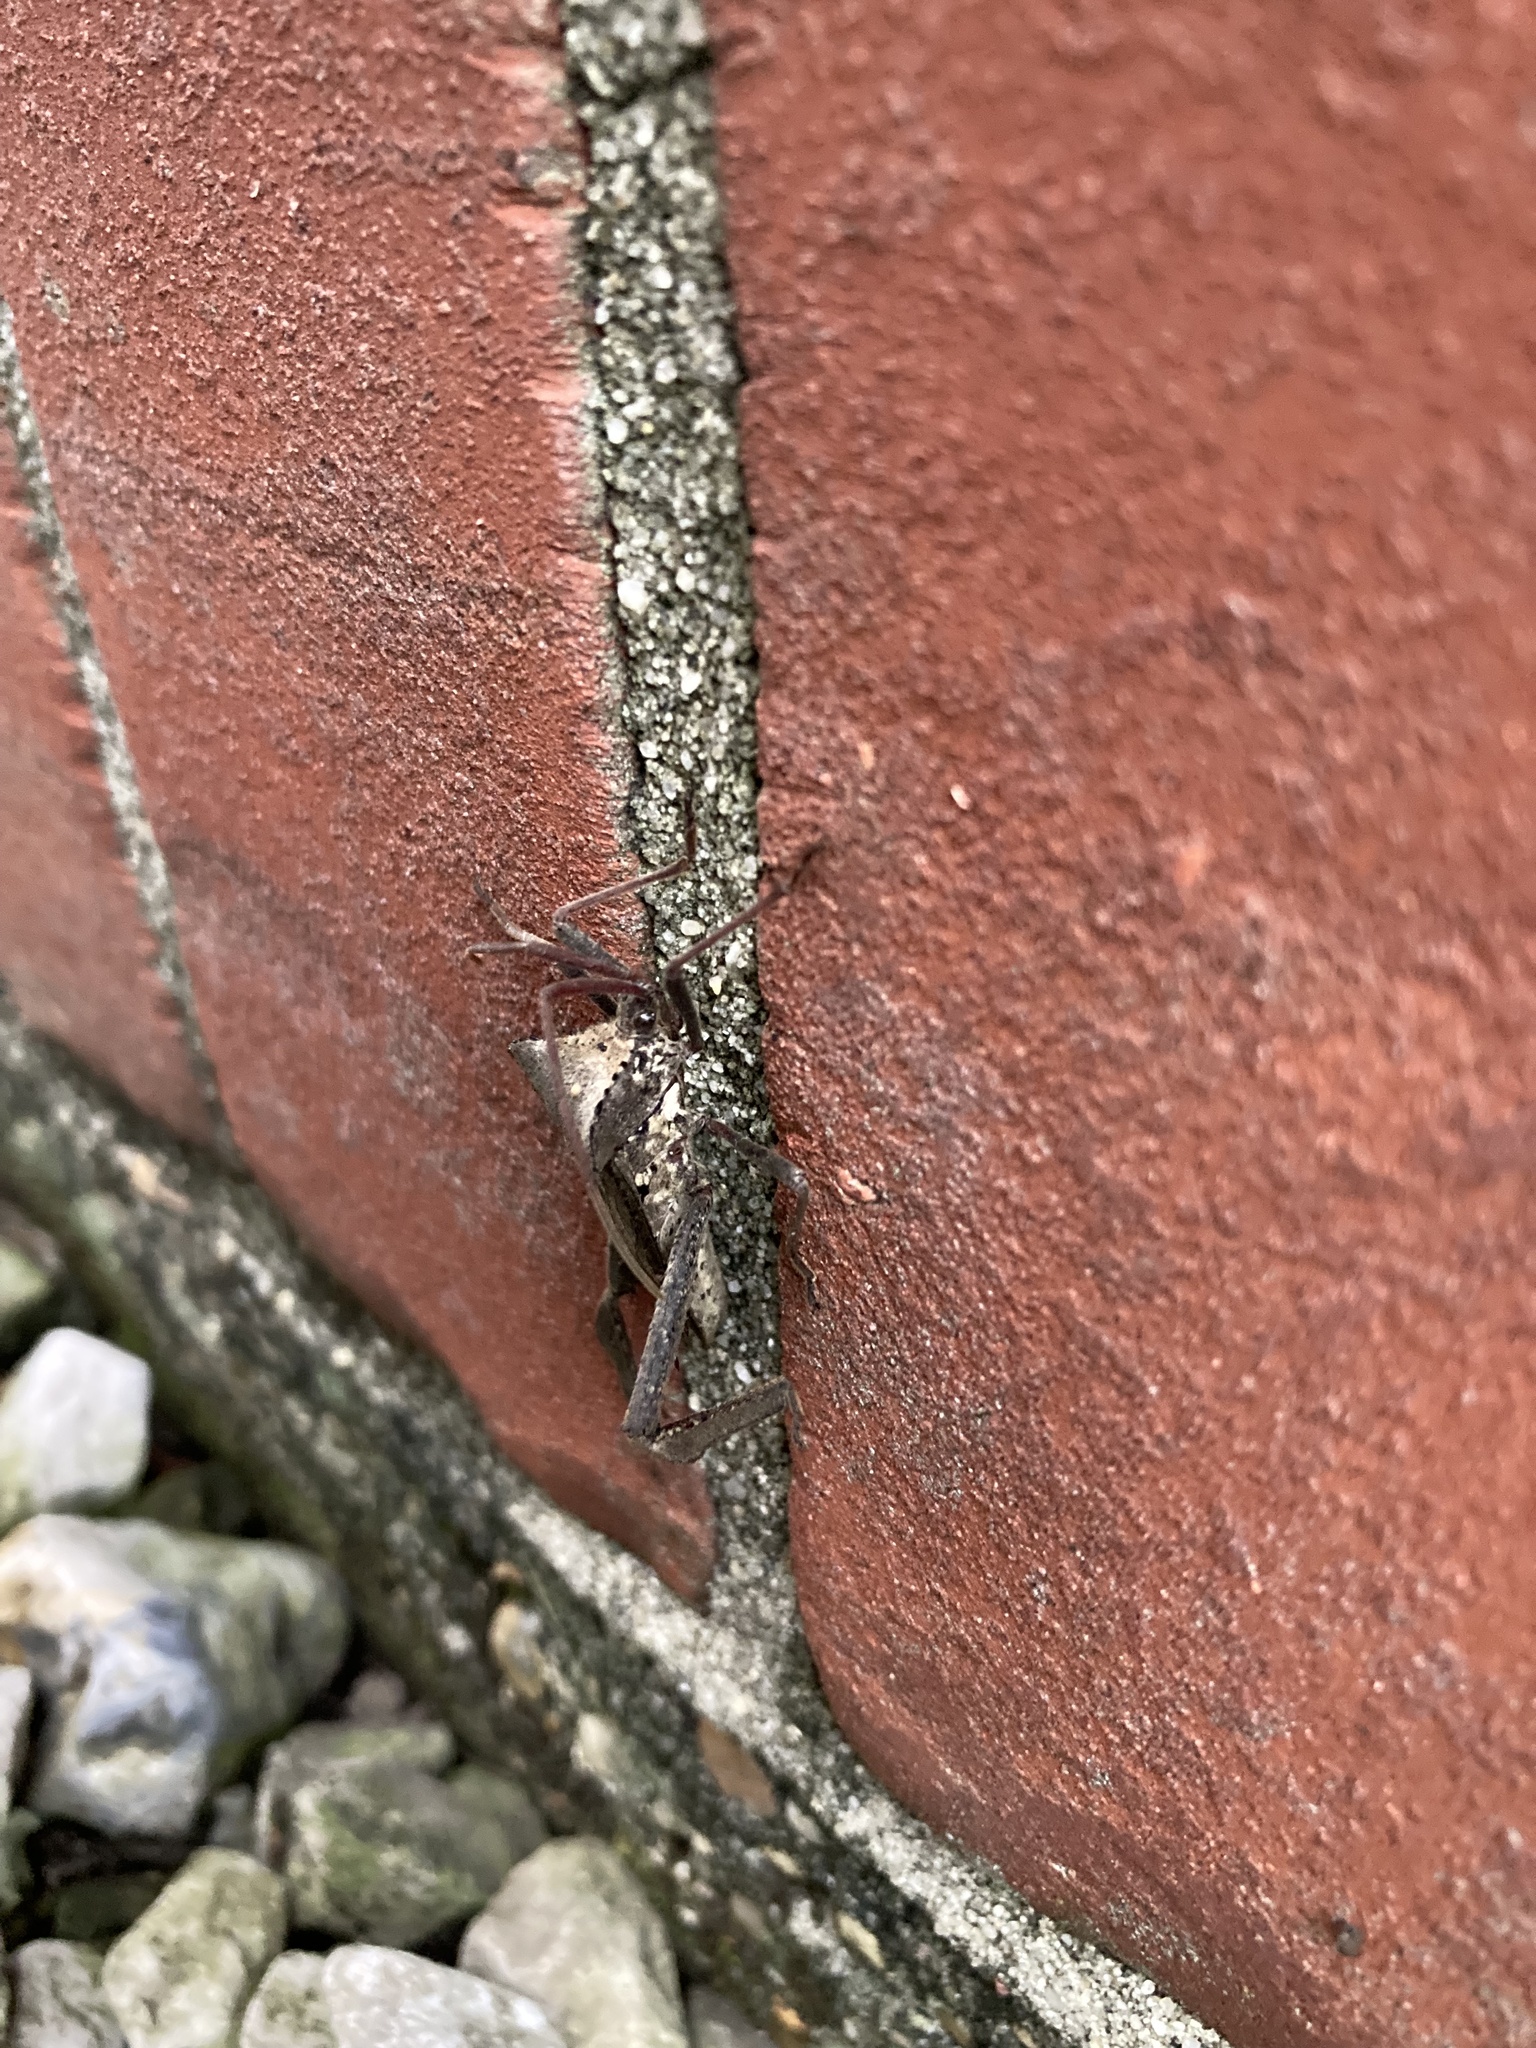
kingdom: Animalia
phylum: Arthropoda
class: Insecta
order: Hemiptera
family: Coreidae
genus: Acanthocephala
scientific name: Acanthocephala declivis
